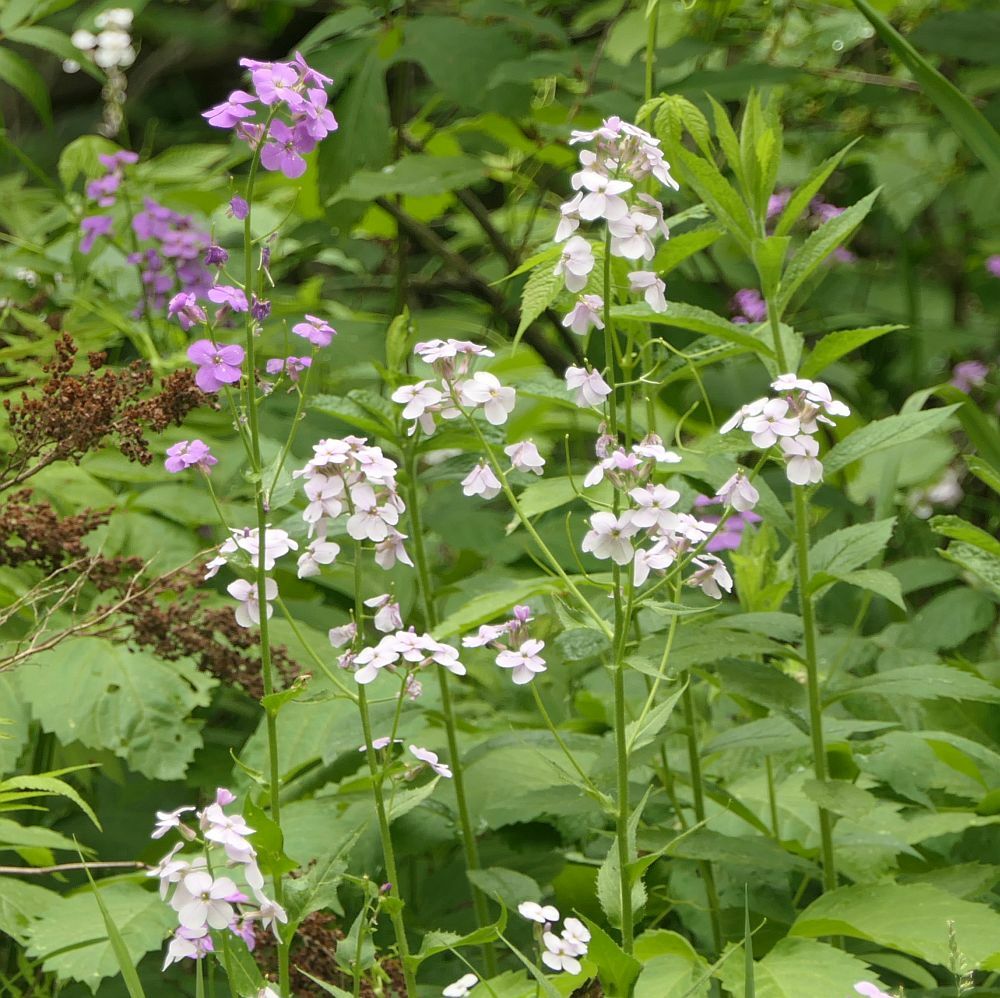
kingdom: Plantae
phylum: Tracheophyta
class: Magnoliopsida
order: Brassicales
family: Brassicaceae
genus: Hesperis
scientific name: Hesperis matronalis
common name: Dame's-violet
